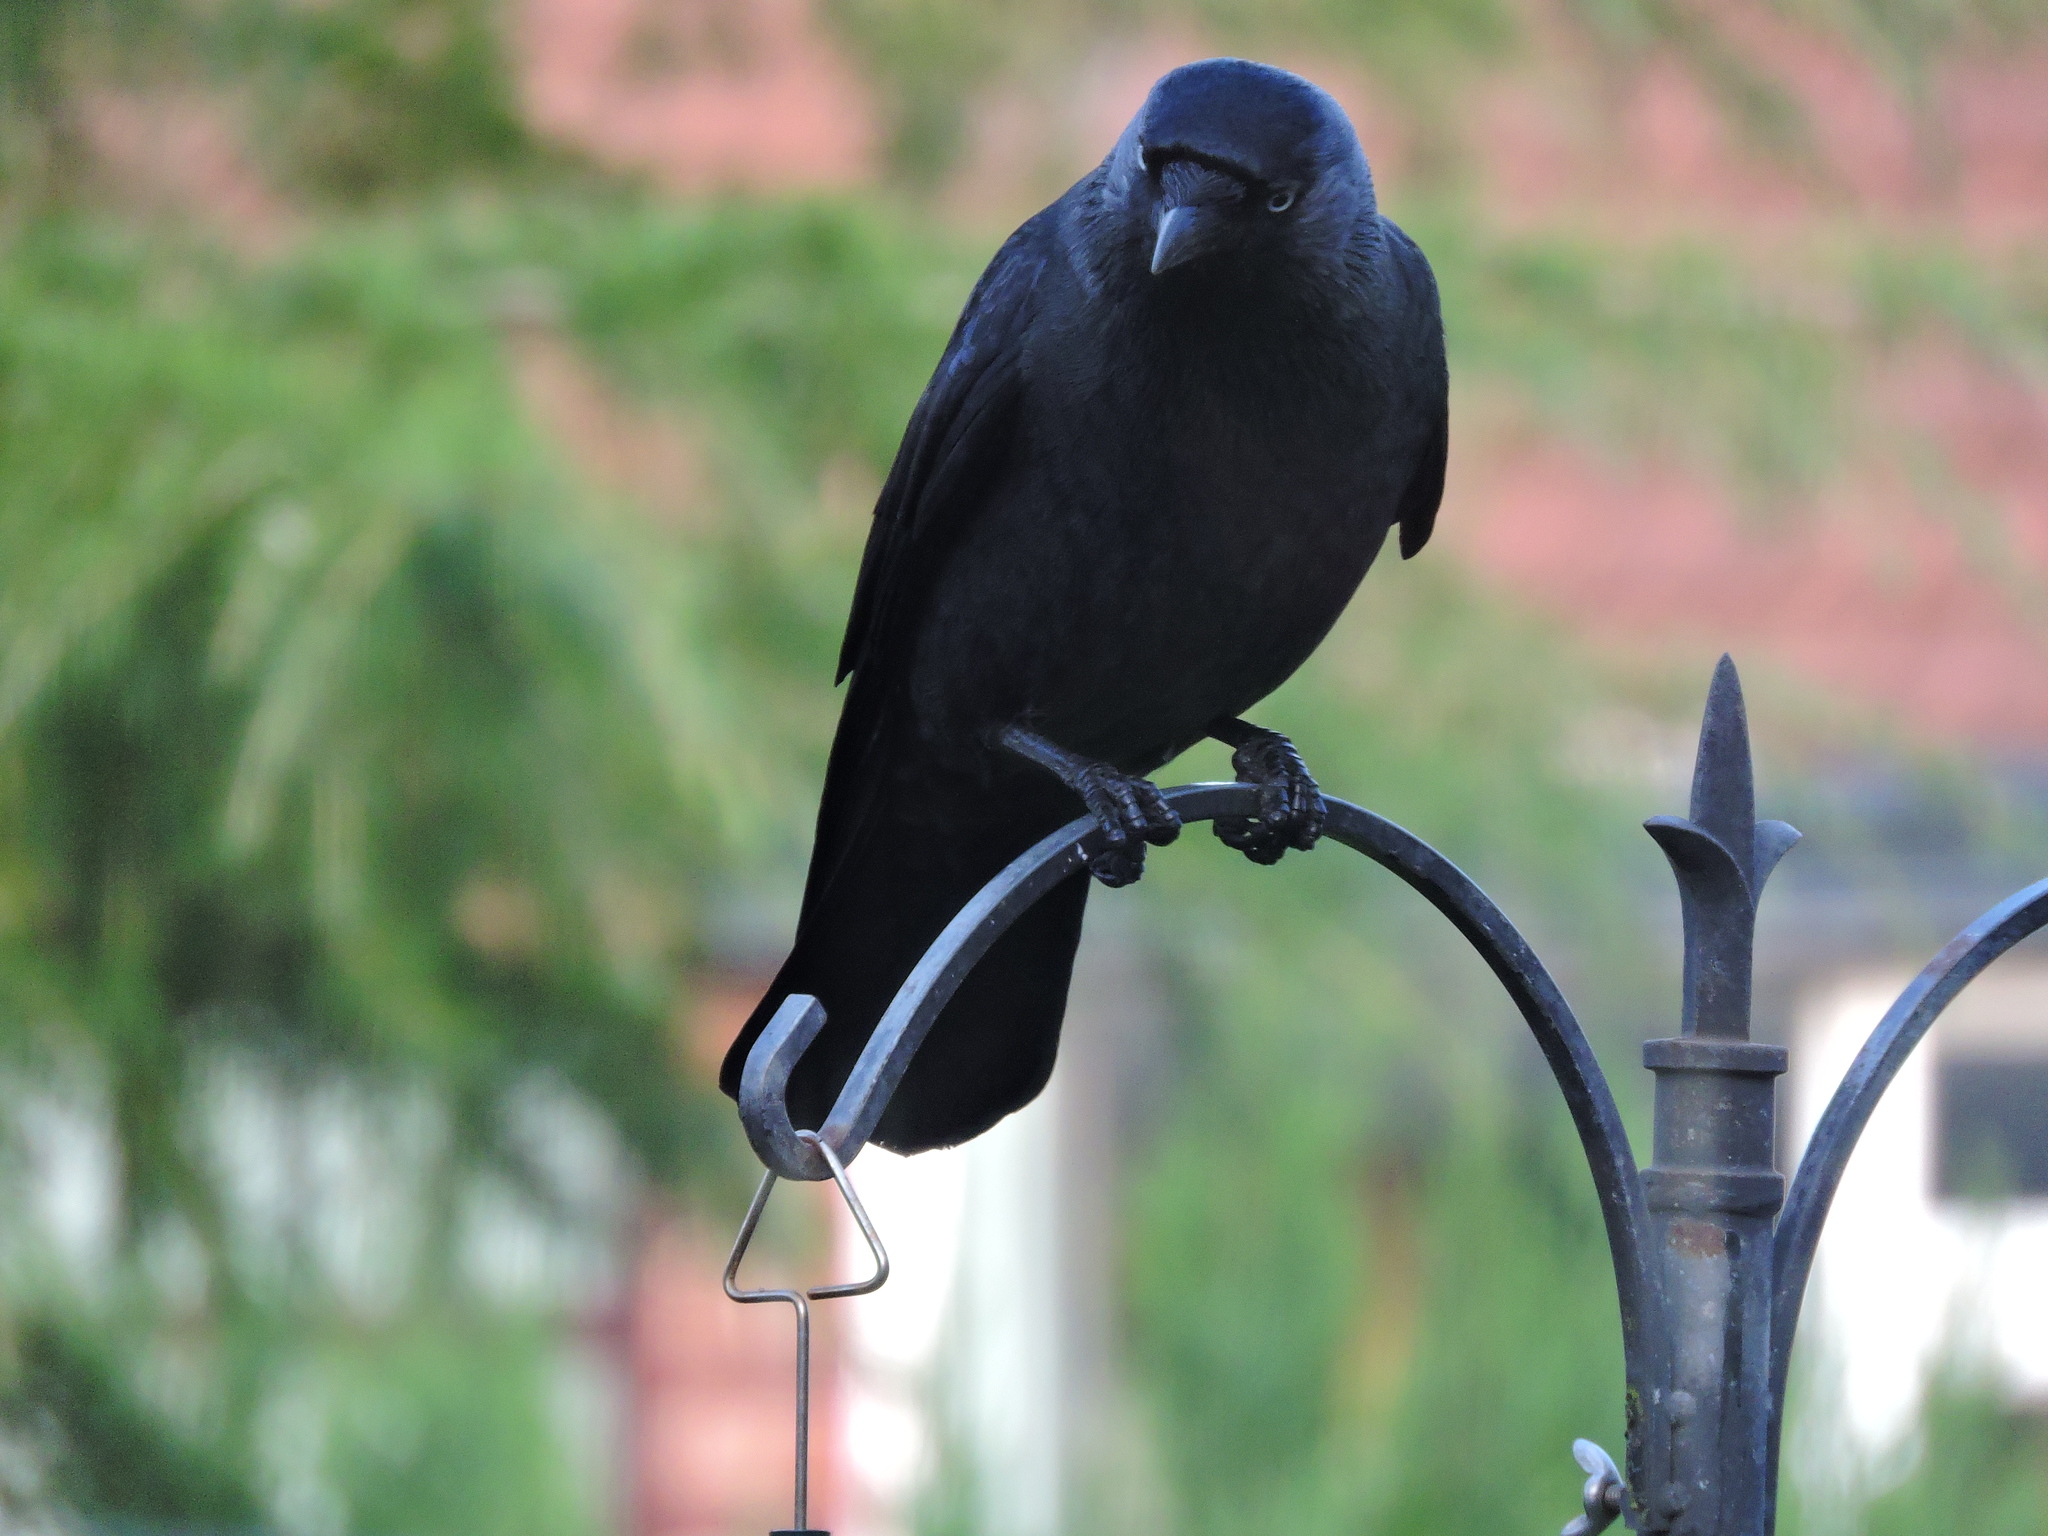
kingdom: Animalia
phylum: Chordata
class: Aves
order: Passeriformes
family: Corvidae
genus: Coloeus
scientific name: Coloeus monedula
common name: Western jackdaw
